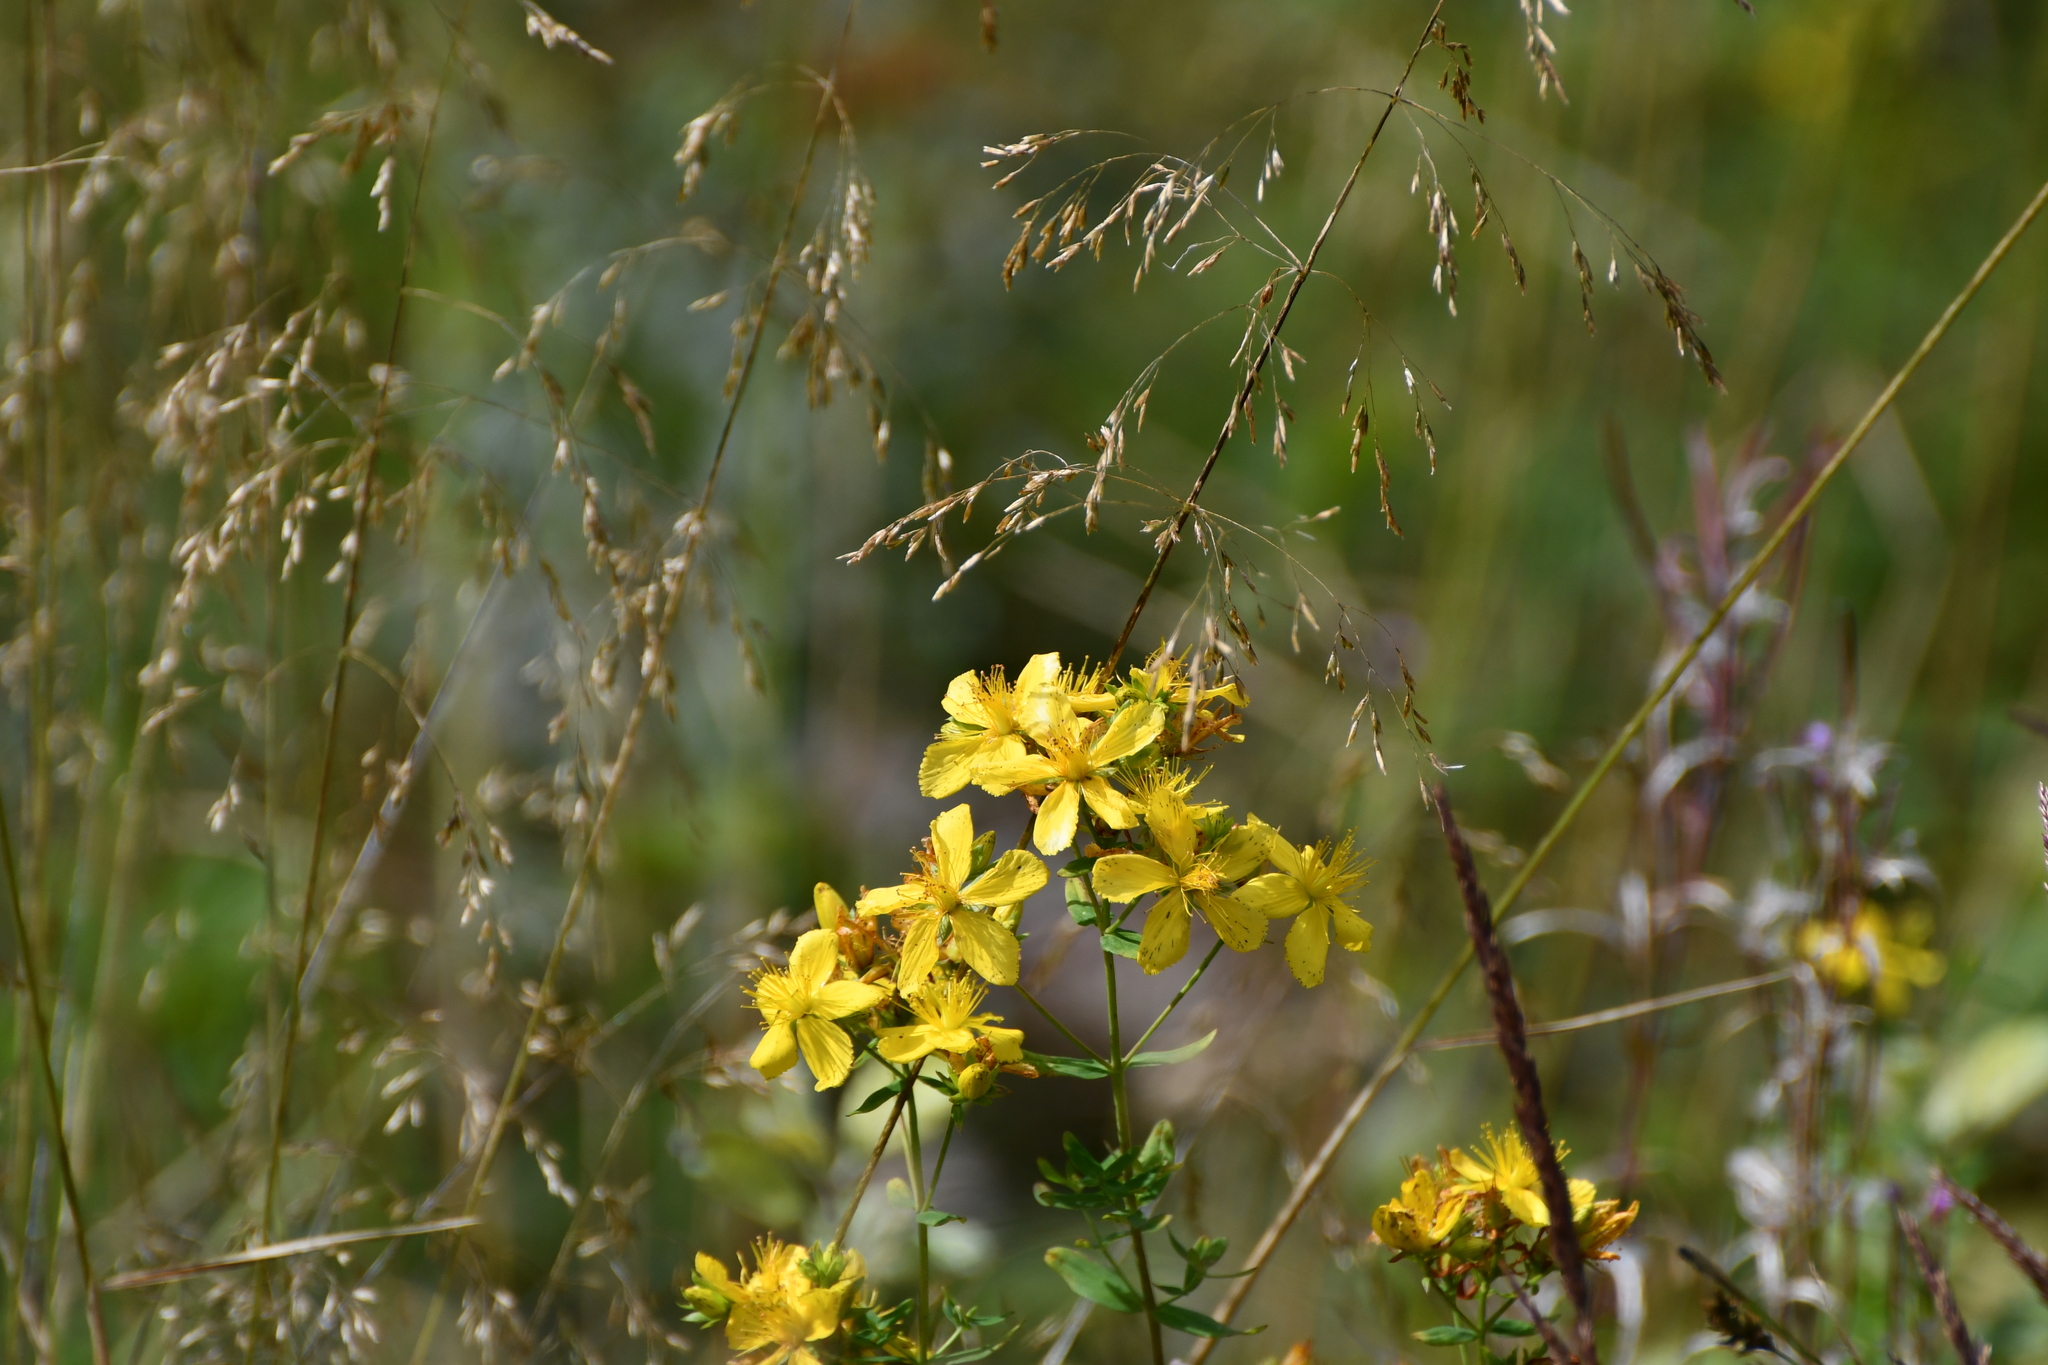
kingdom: Plantae
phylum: Tracheophyta
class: Magnoliopsida
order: Malpighiales
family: Hypericaceae
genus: Hypericum
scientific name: Hypericum perforatum
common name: Common st. johnswort
